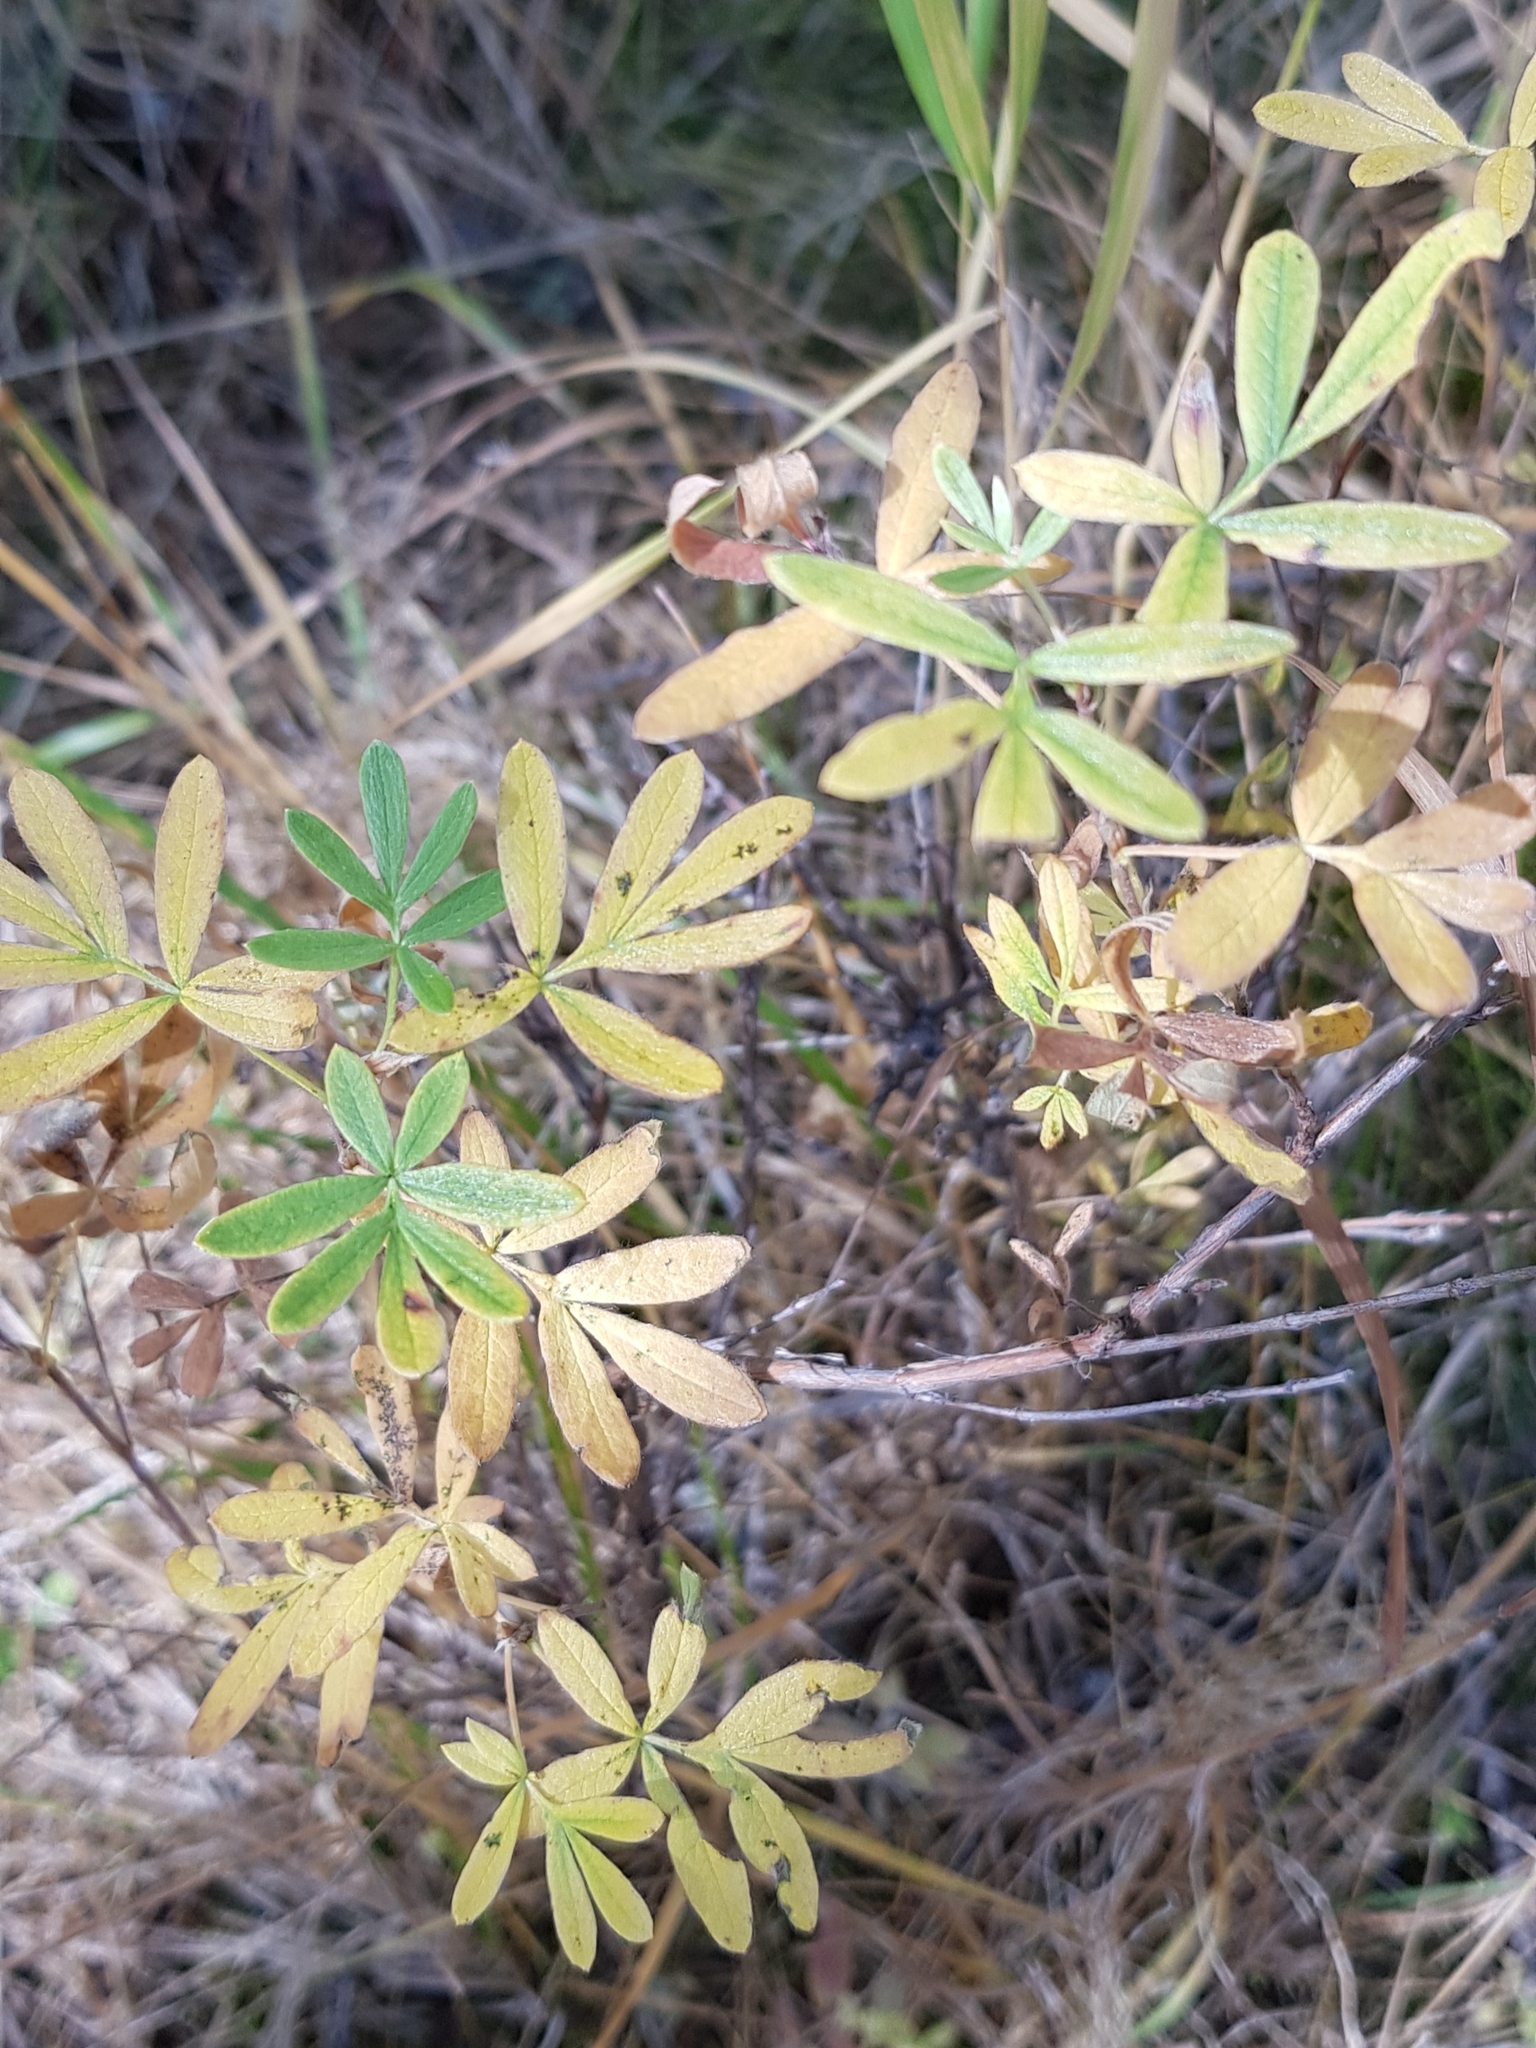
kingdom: Plantae
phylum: Tracheophyta
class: Magnoliopsida
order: Rosales
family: Rosaceae
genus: Dasiphora
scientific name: Dasiphora fruticosa
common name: Shrubby cinquefoil
